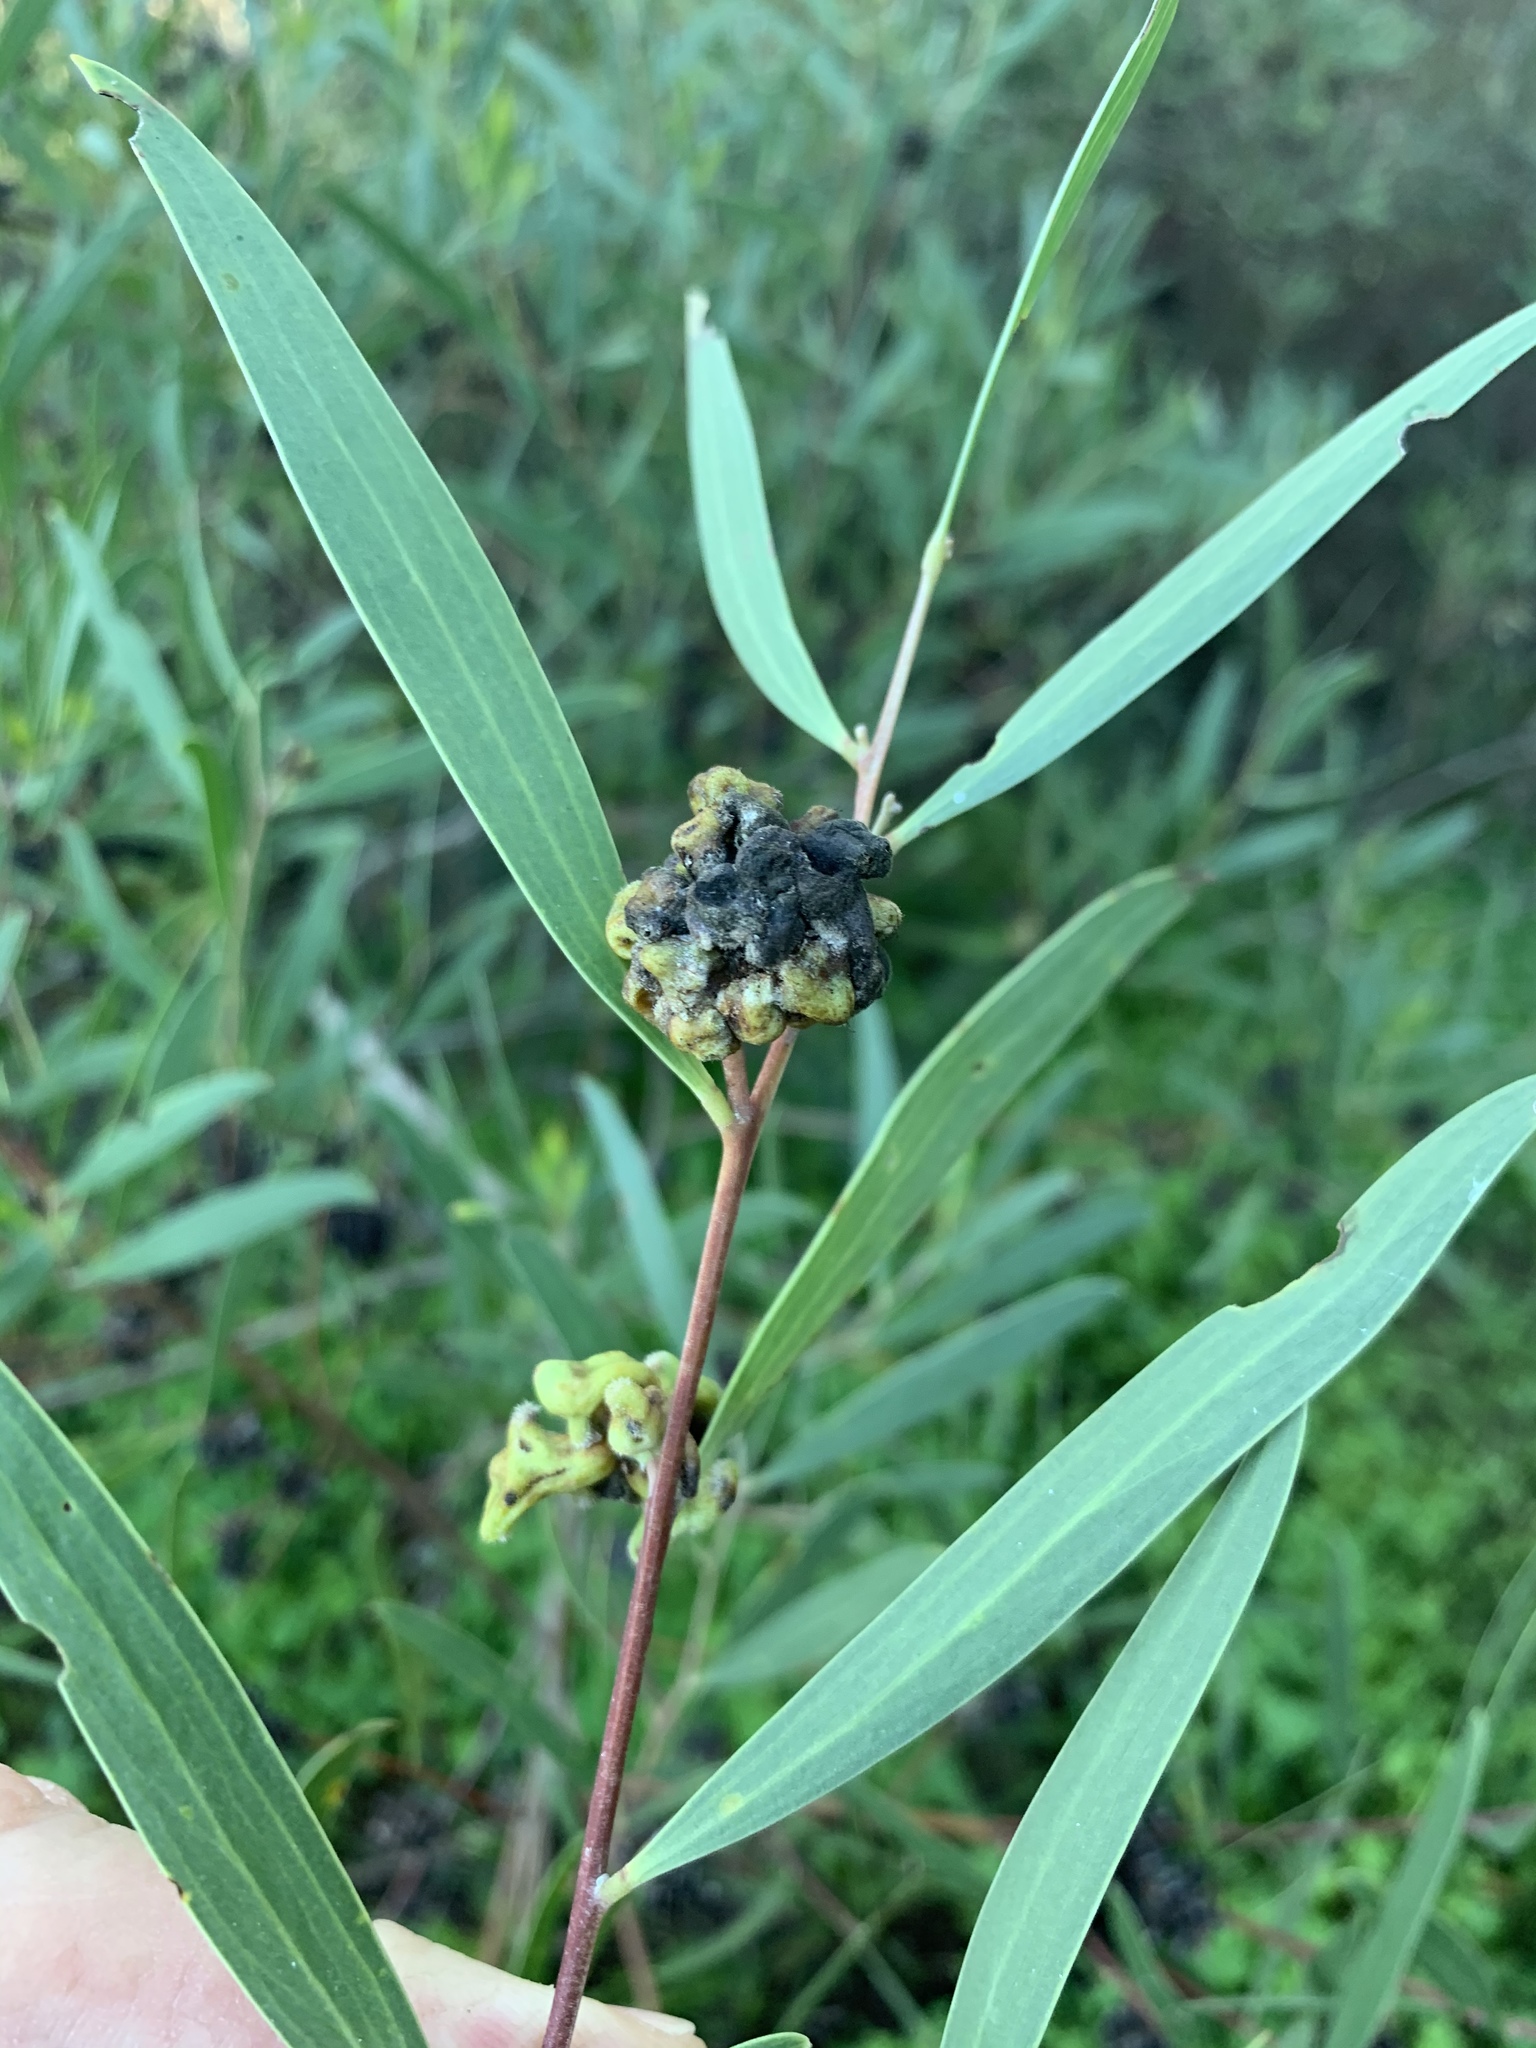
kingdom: Animalia
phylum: Arthropoda
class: Insecta
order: Diptera
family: Cecidomyiidae
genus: Dasineura
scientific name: Dasineura dielsi
